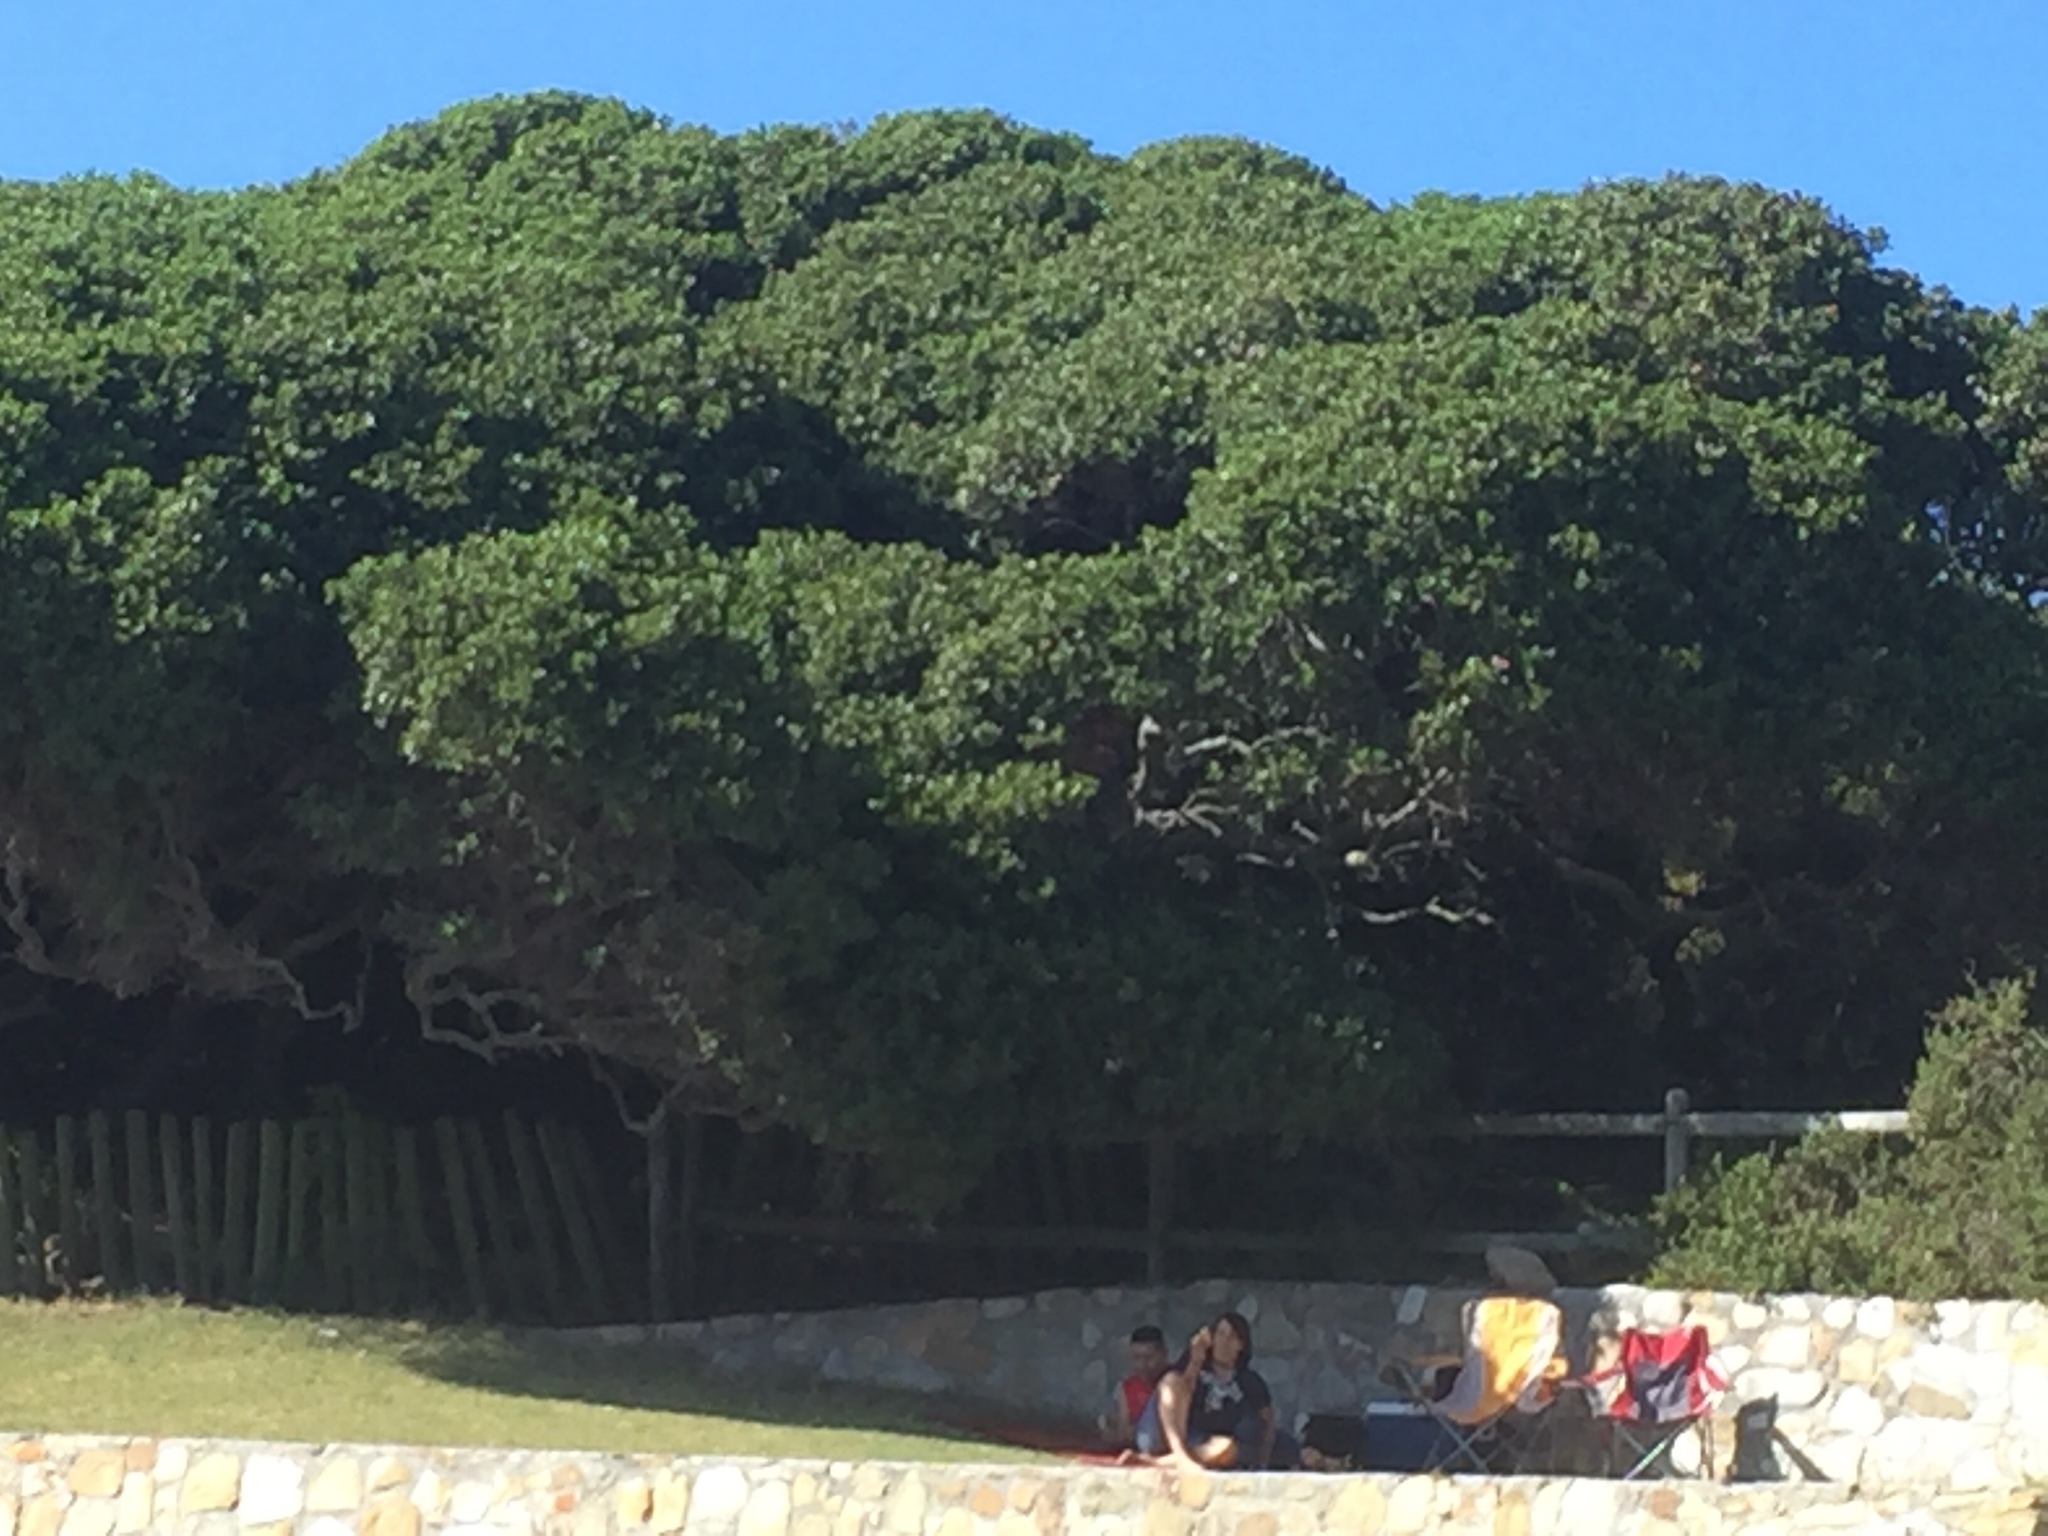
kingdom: Plantae
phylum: Tracheophyta
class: Magnoliopsida
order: Ericales
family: Sapotaceae
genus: Sideroxylon
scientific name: Sideroxylon inerme
